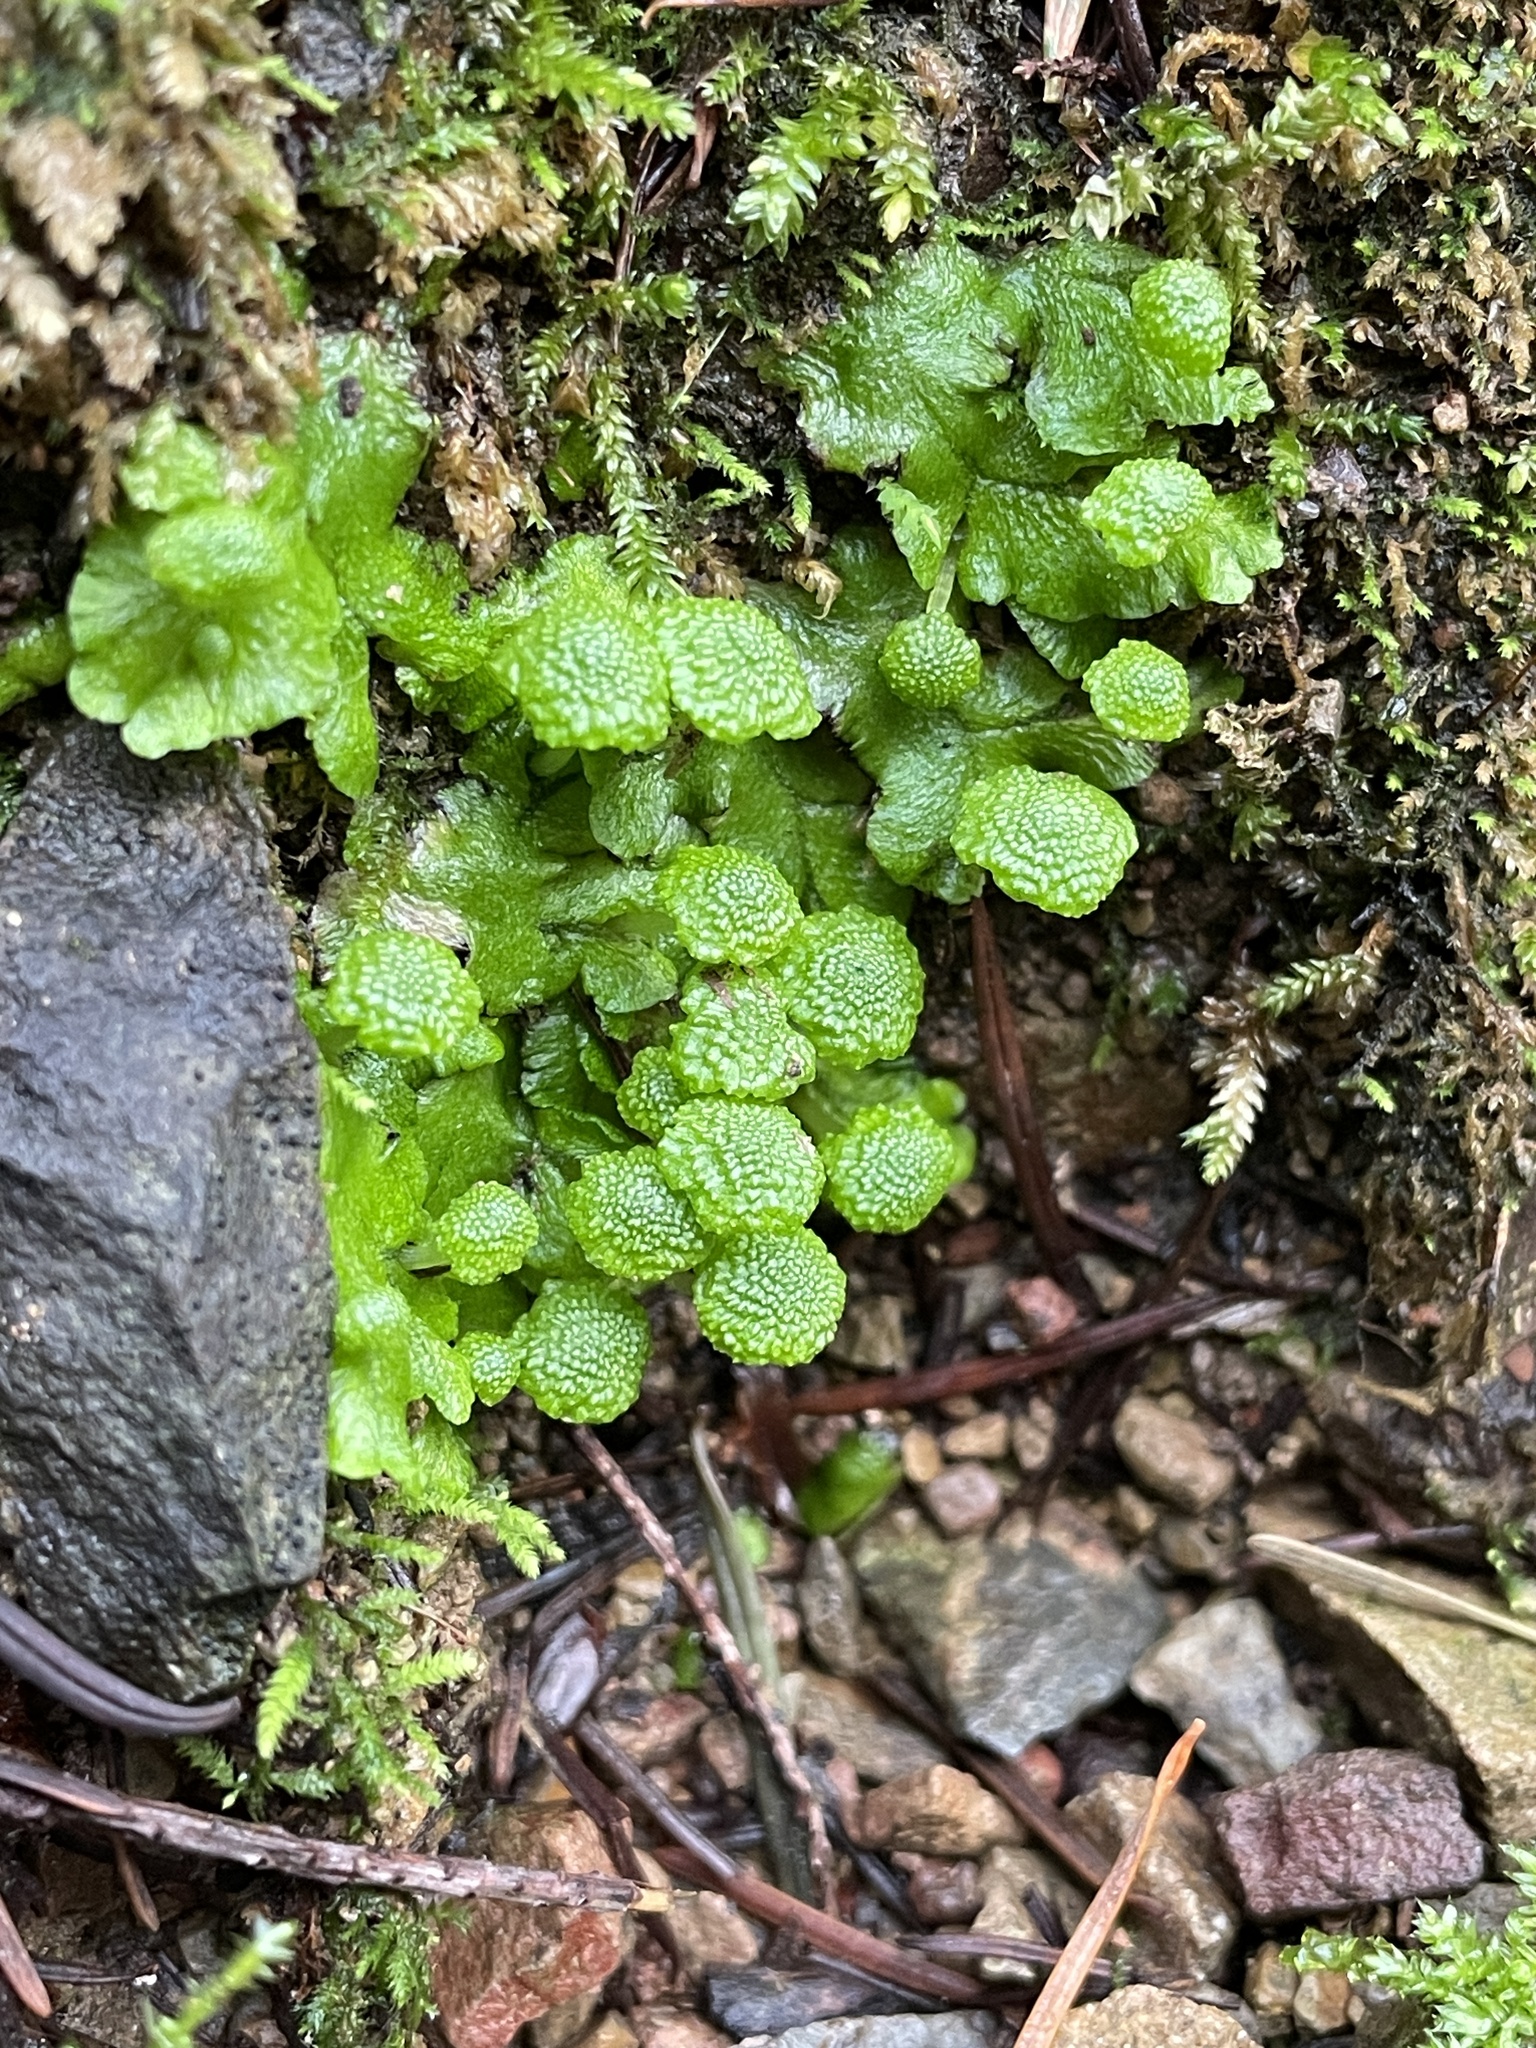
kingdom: Plantae
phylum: Marchantiophyta
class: Marchantiopsida
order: Marchantiales
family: Aytoniaceae
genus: Cryptomitrium
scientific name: Cryptomitrium tenerum
